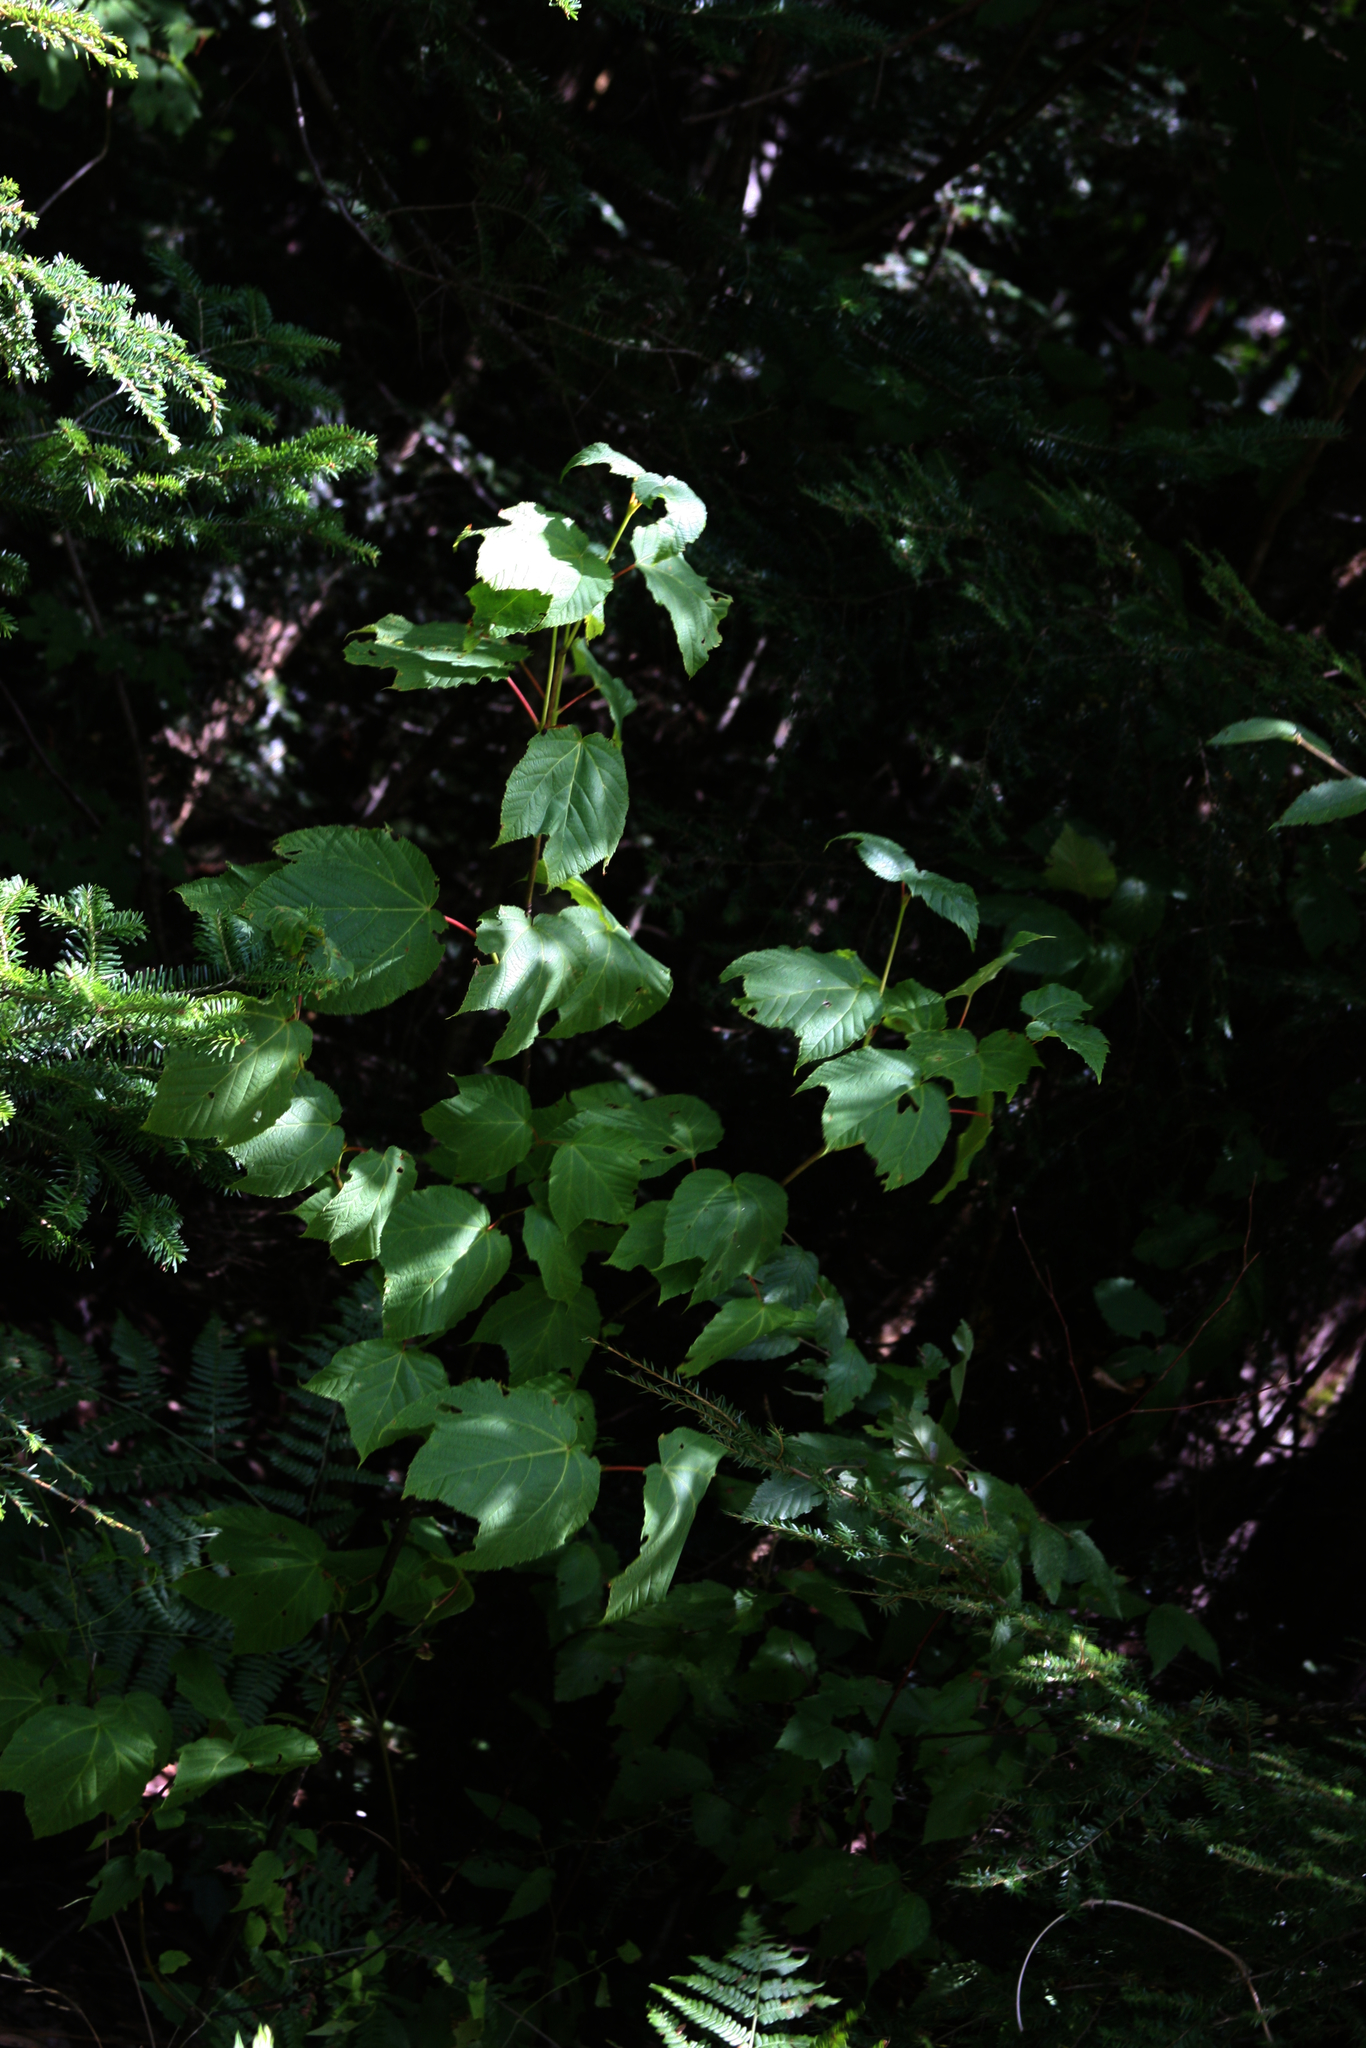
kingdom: Plantae
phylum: Tracheophyta
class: Magnoliopsida
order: Sapindales
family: Sapindaceae
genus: Acer
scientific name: Acer pensylvanicum
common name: Moosewood
